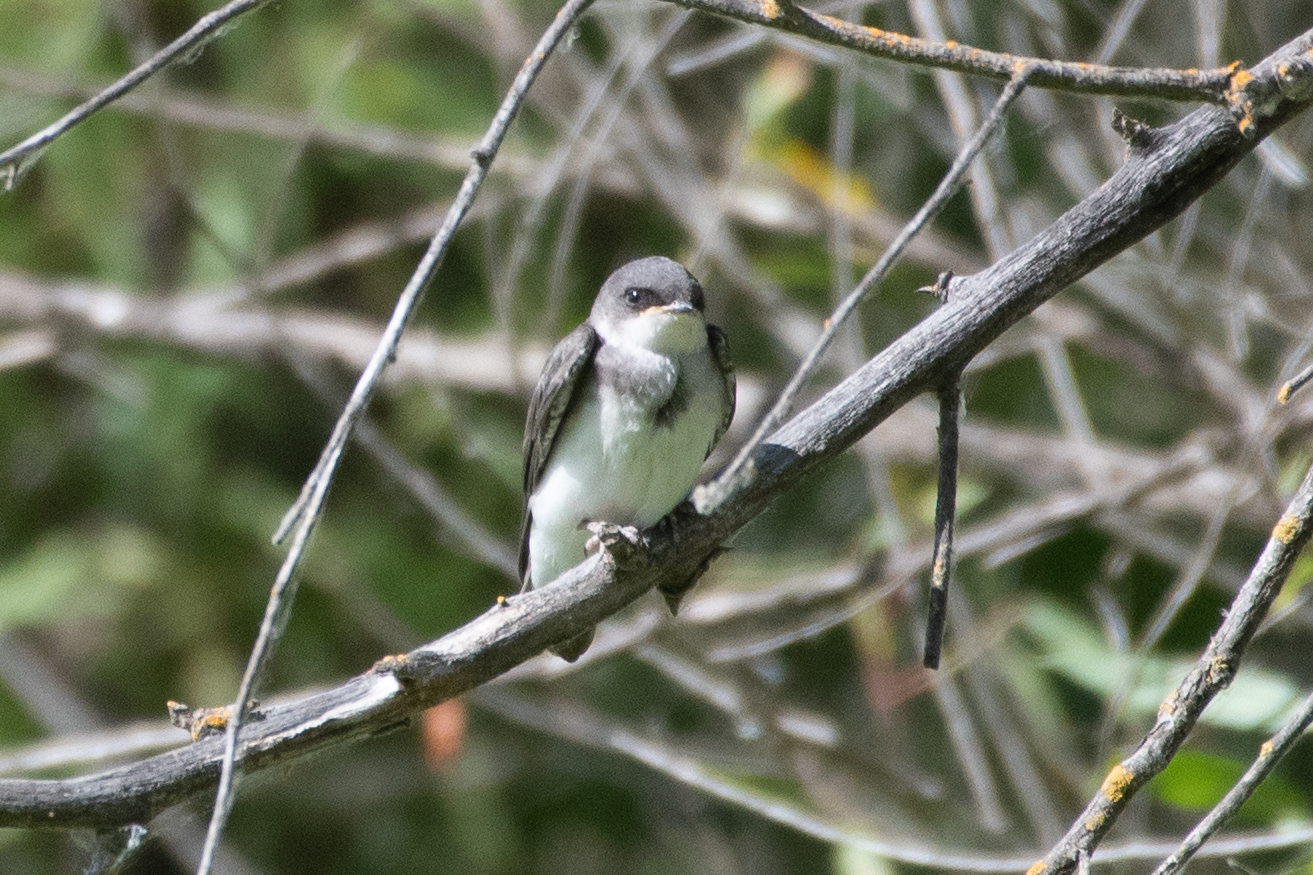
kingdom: Animalia
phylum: Chordata
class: Aves
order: Passeriformes
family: Hirundinidae
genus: Tachycineta
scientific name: Tachycineta bicolor
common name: Tree swallow
